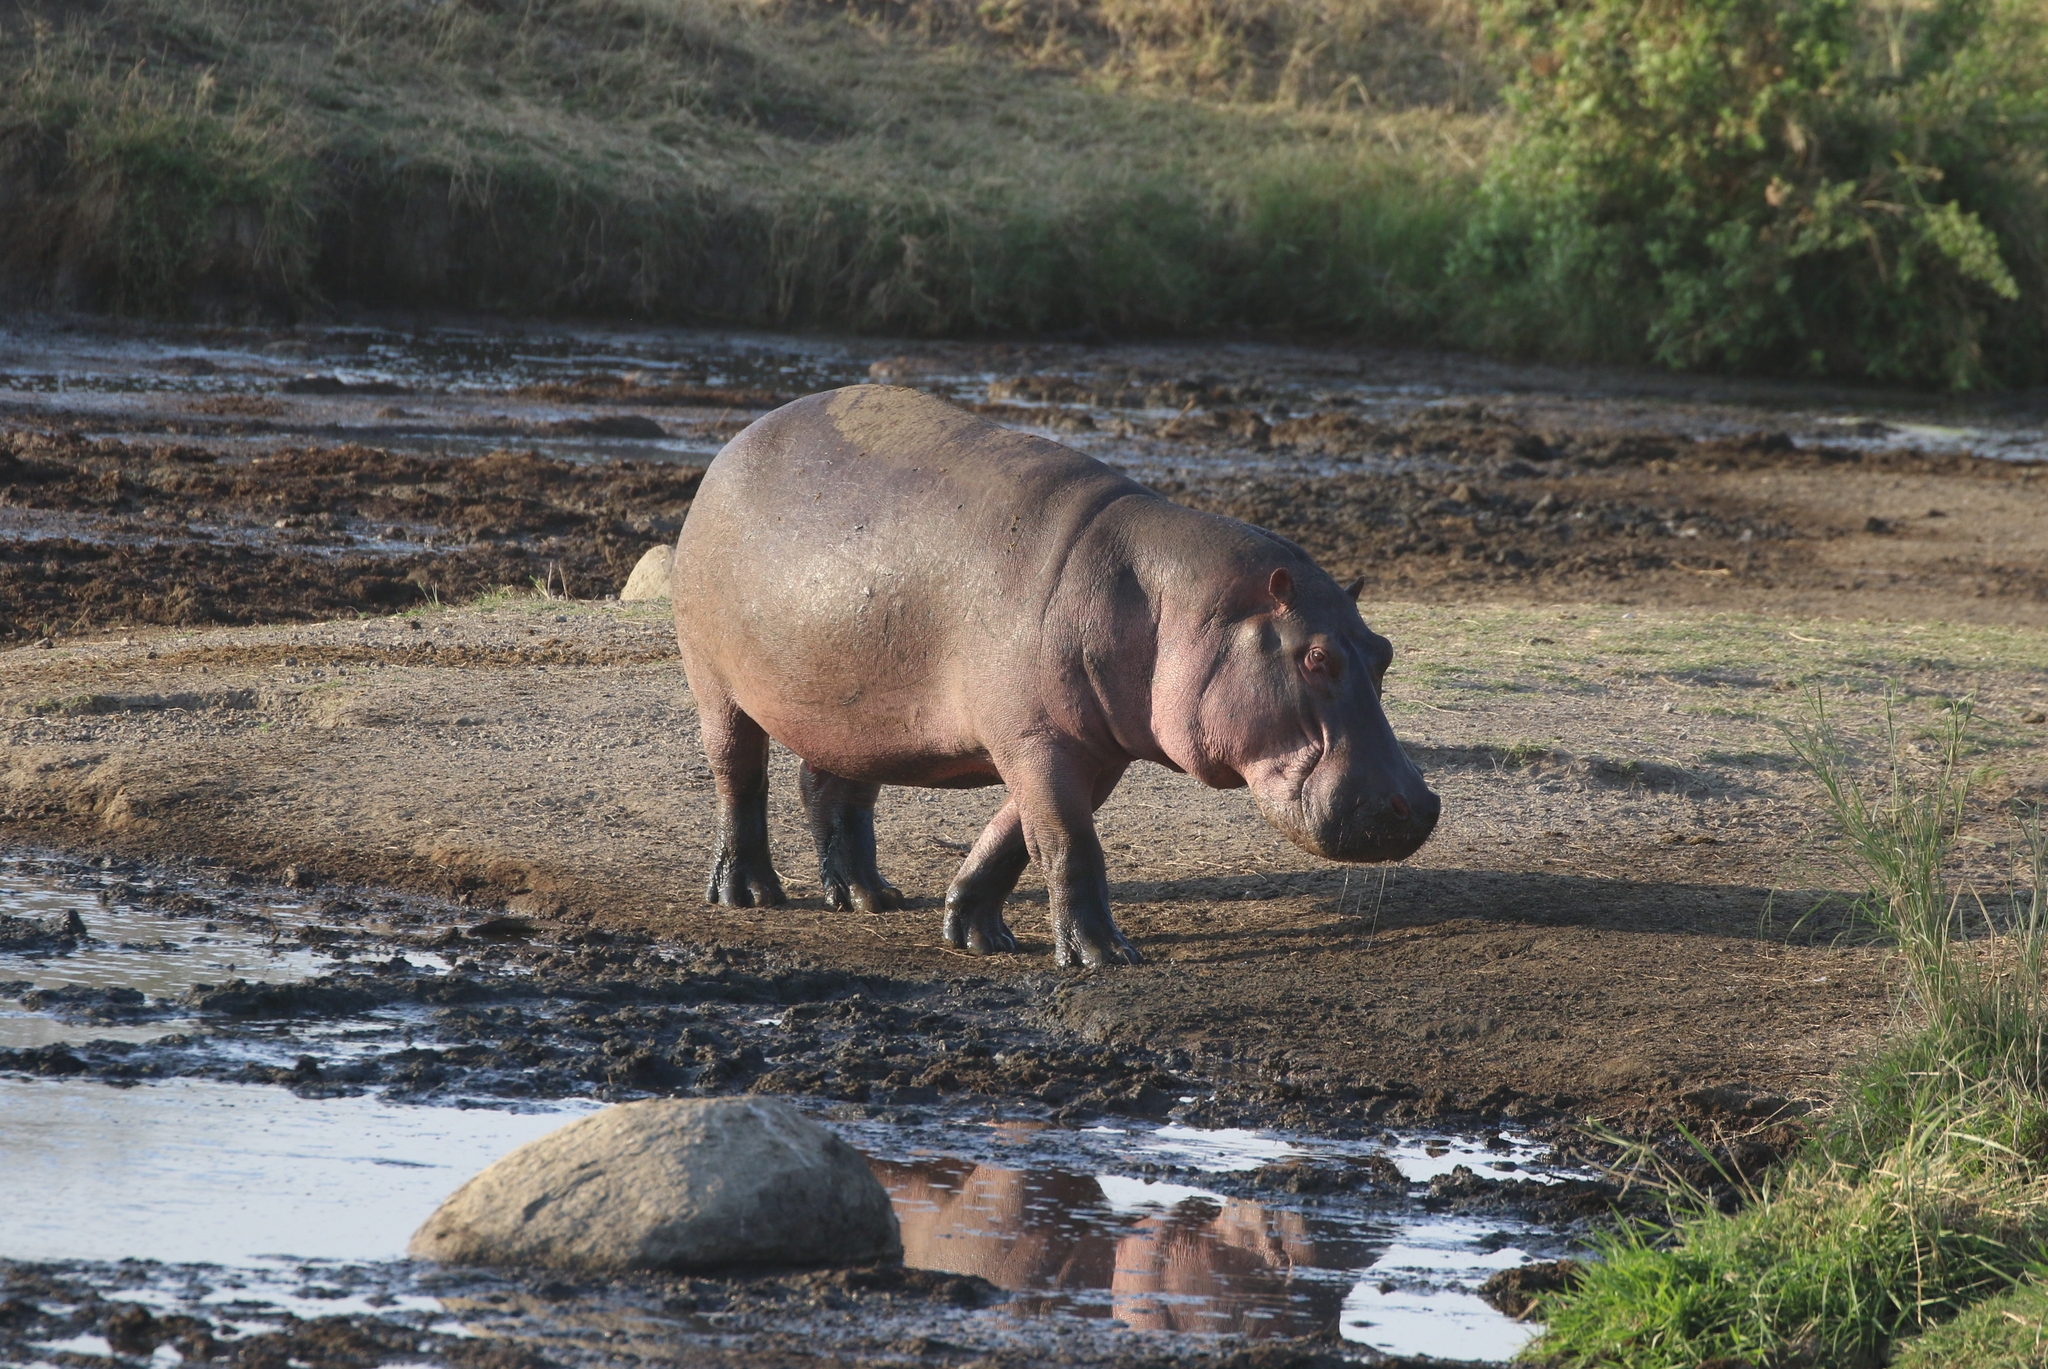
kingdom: Animalia
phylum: Chordata
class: Mammalia
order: Artiodactyla
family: Hippopotamidae
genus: Hippopotamus
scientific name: Hippopotamus amphibius
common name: Common hippopotamus
